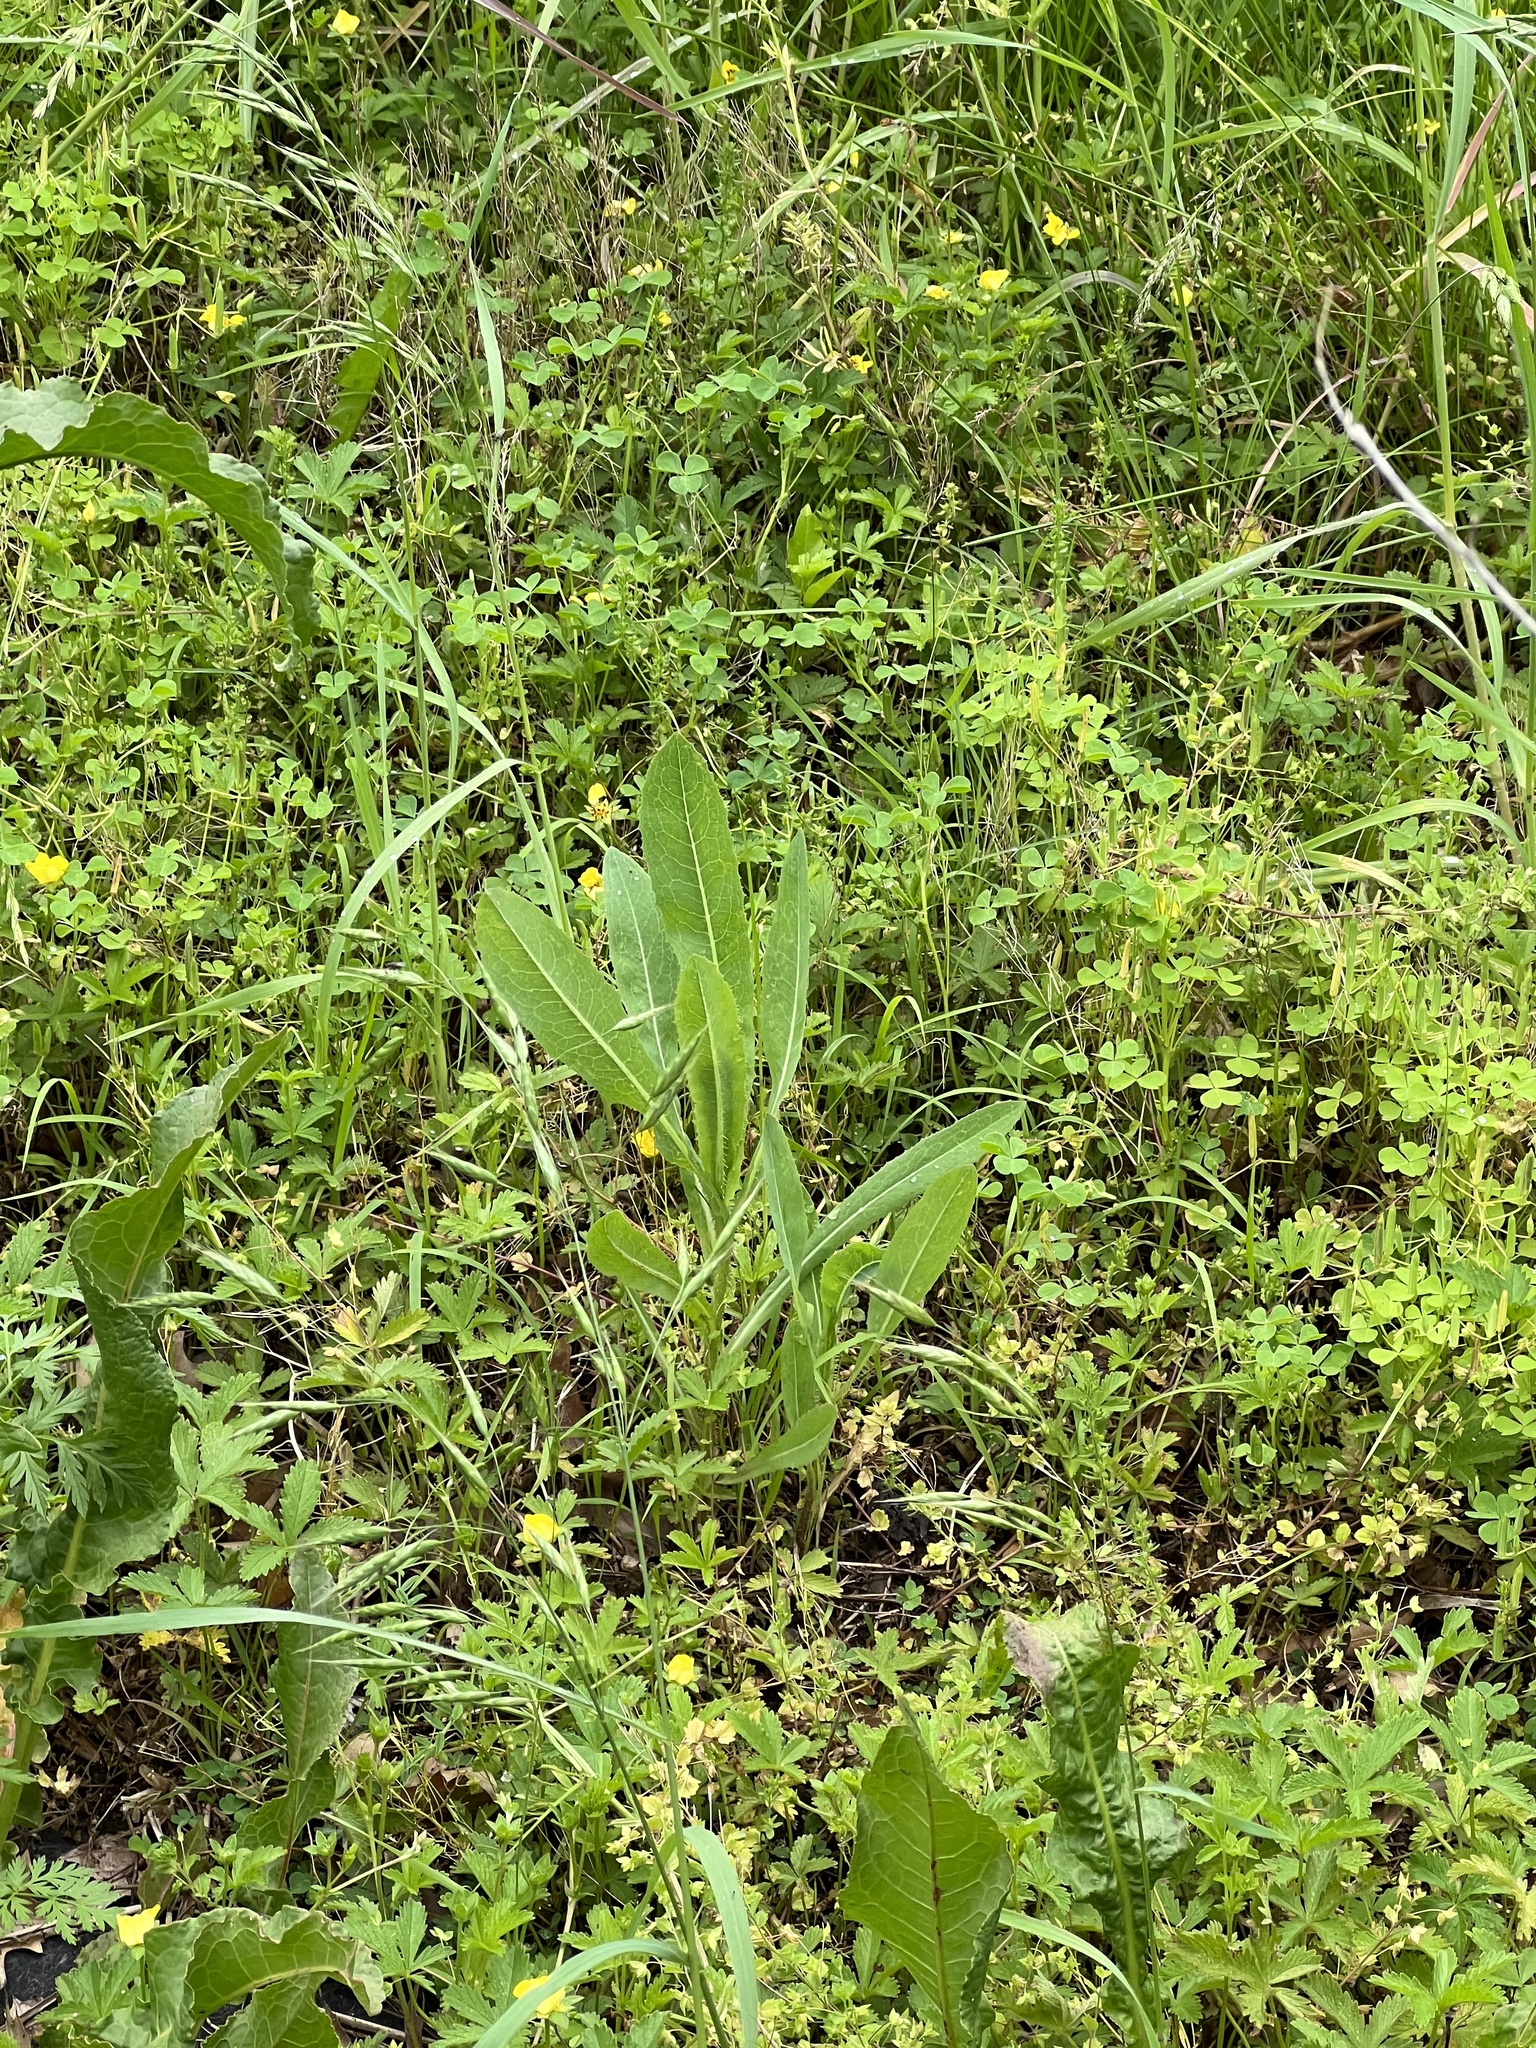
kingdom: Plantae
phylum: Tracheophyta
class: Magnoliopsida
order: Asterales
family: Asteraceae
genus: Lactuca
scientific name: Lactuca serriola
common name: Prickly lettuce
